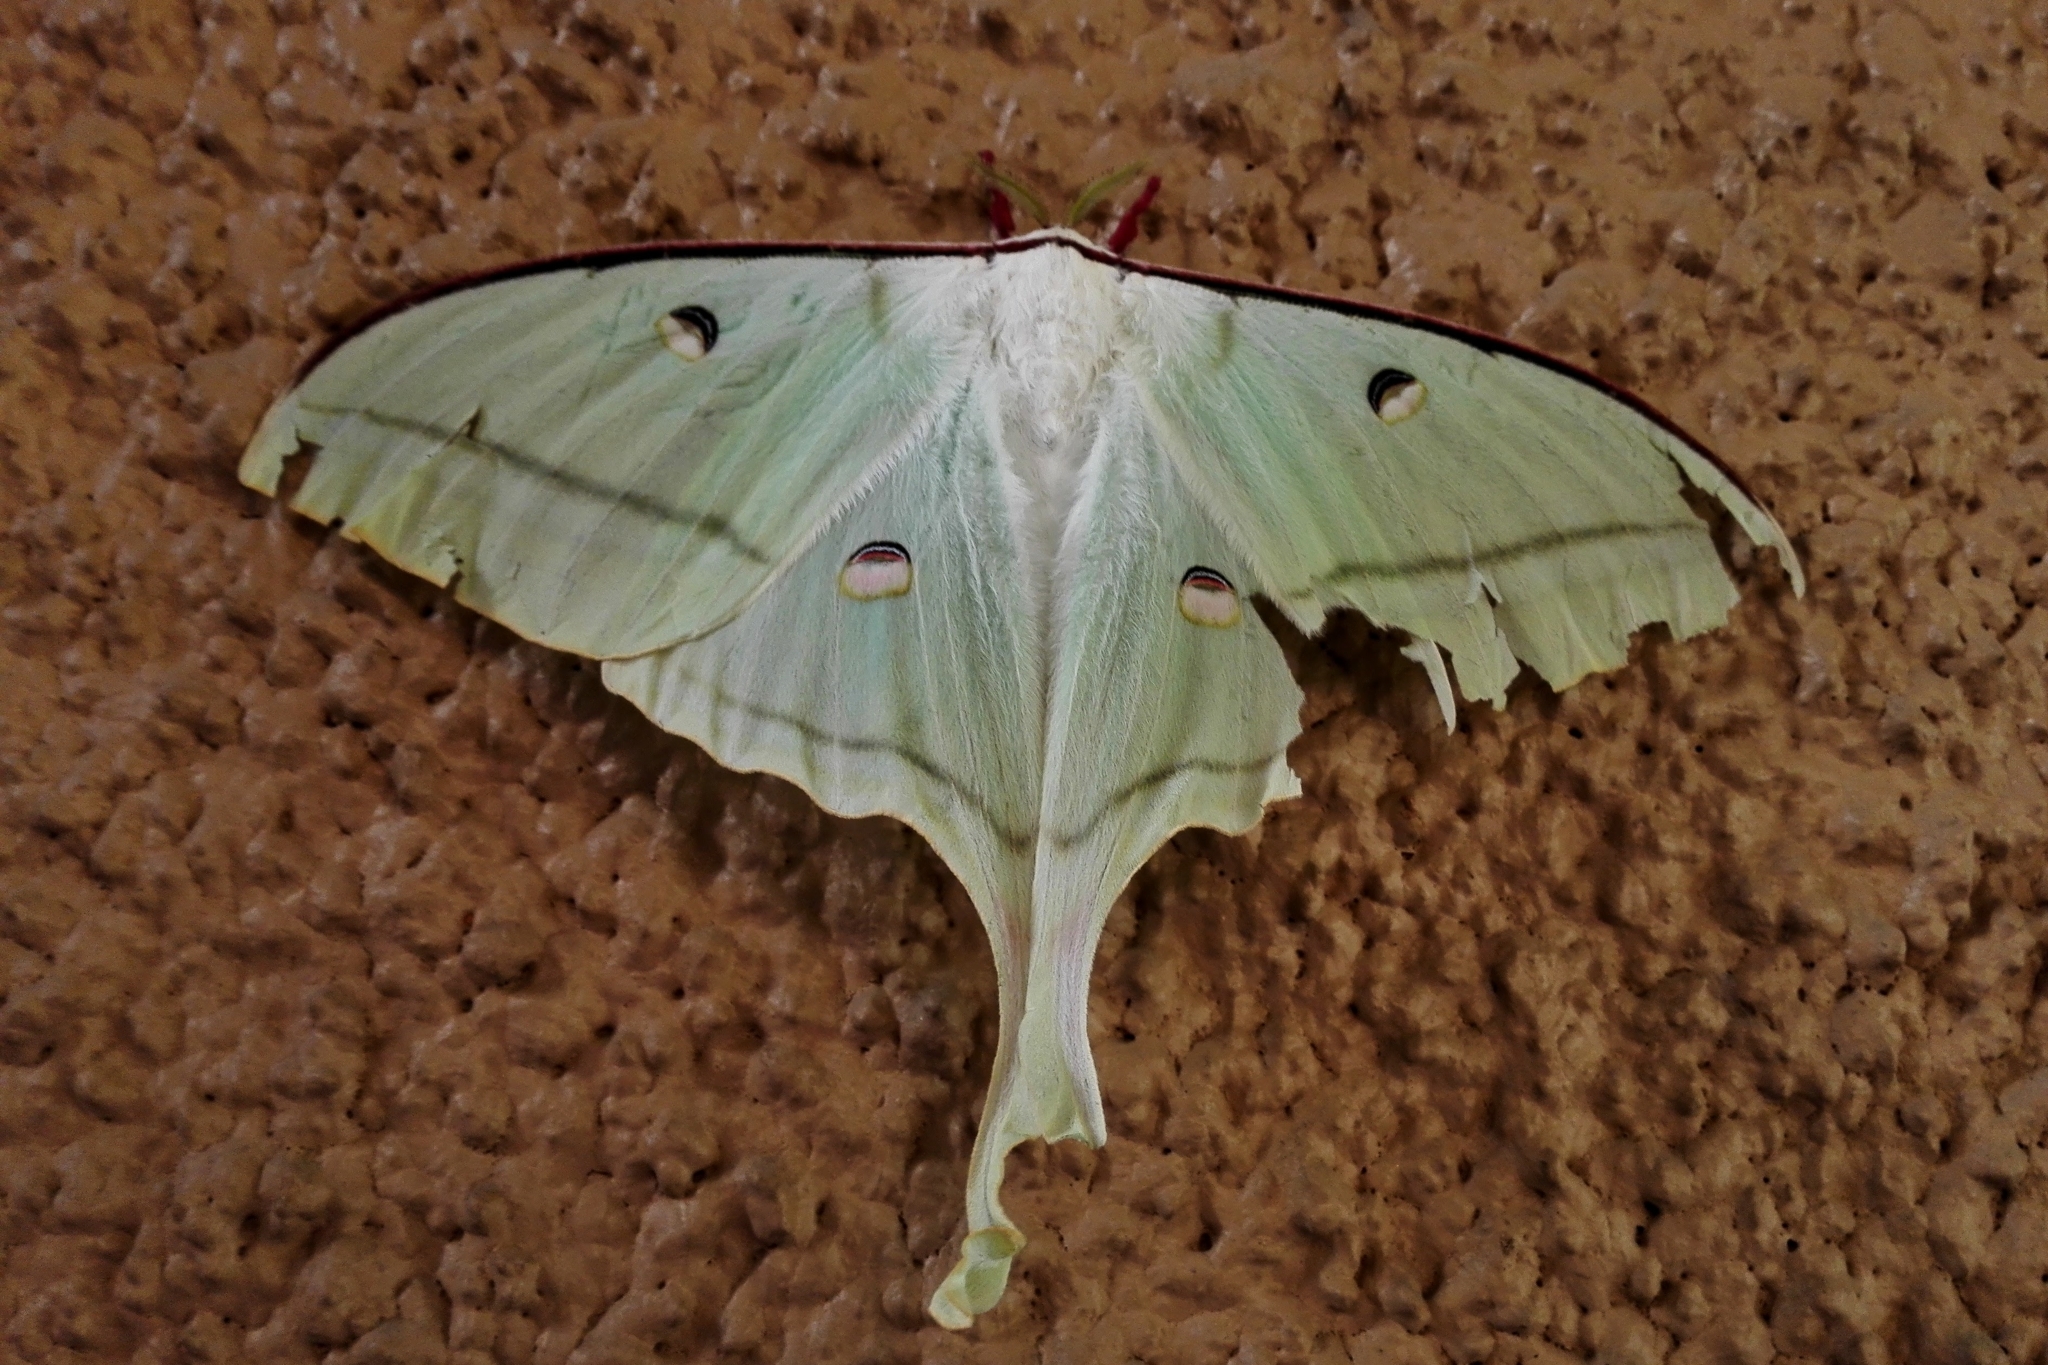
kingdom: Animalia
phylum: Arthropoda
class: Insecta
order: Lepidoptera
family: Saturniidae
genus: Actias
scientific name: Actias selene
